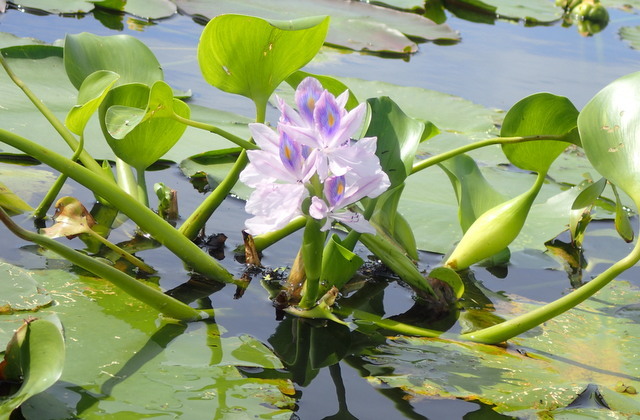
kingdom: Plantae
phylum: Tracheophyta
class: Liliopsida
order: Commelinales
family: Pontederiaceae
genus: Pontederia
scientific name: Pontederia crassipes
